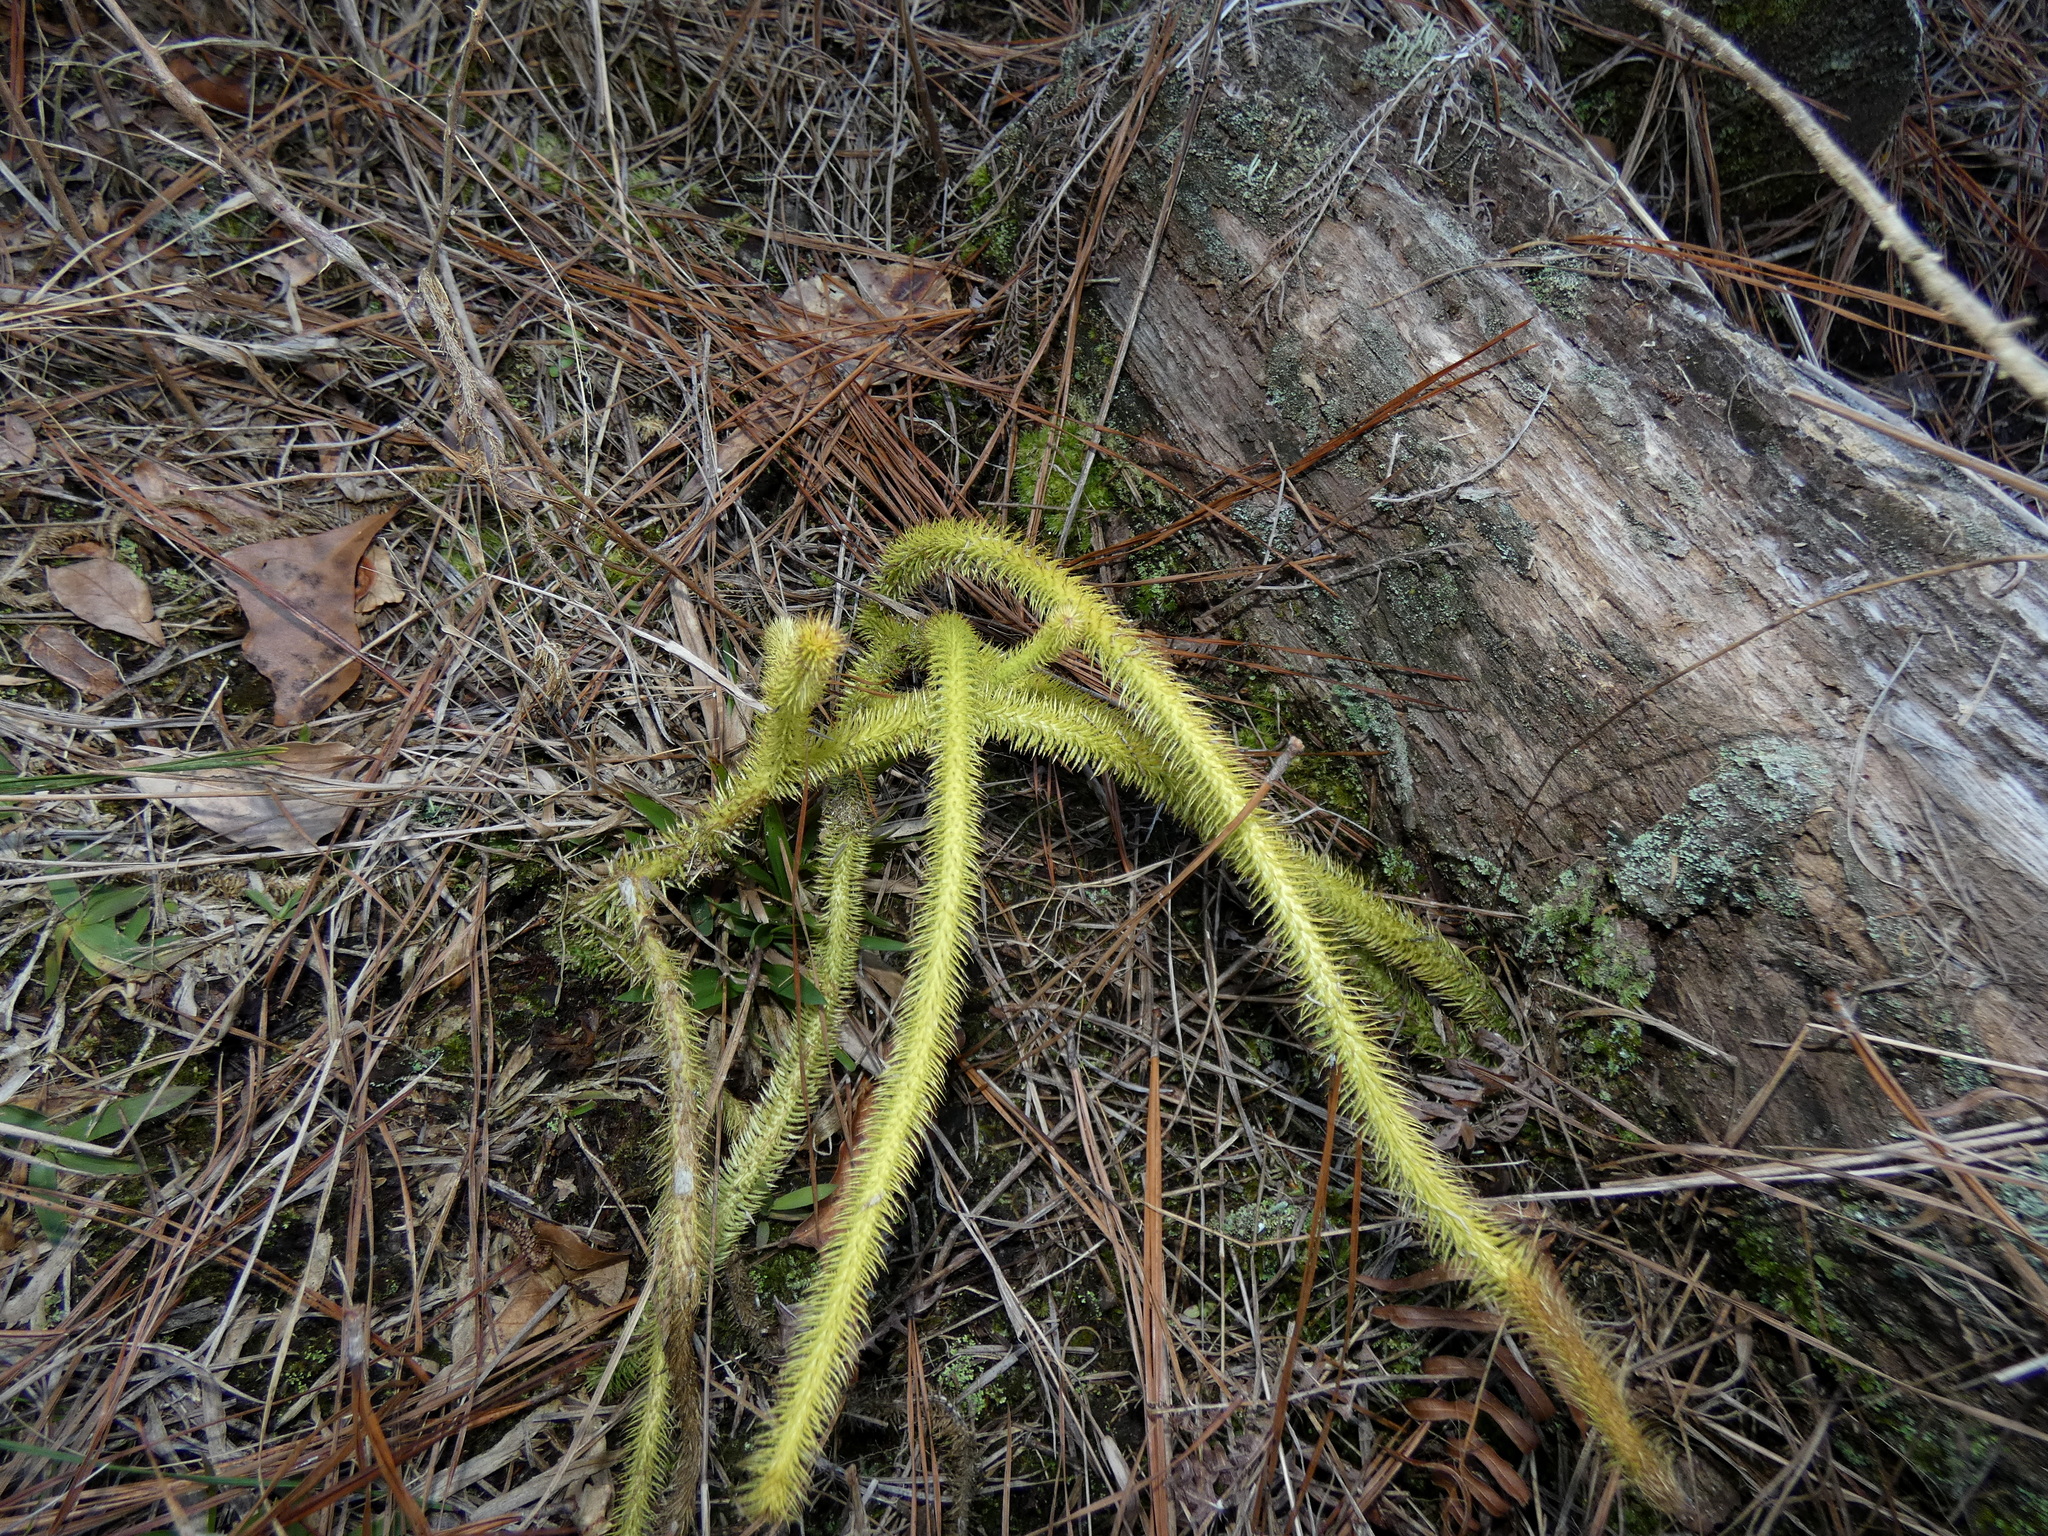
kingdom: Plantae
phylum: Tracheophyta
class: Lycopodiopsida
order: Lycopodiales
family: Lycopodiaceae
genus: Lycopodiella
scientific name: Lycopodiella alopecuroides
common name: Foxtail clubmoss
